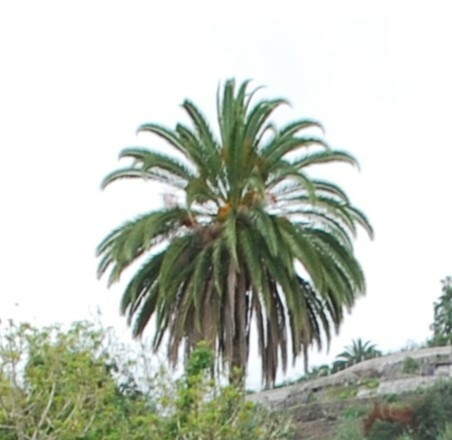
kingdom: Plantae
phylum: Tracheophyta
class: Liliopsida
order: Arecales
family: Arecaceae
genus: Phoenix
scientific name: Phoenix canariensis
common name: Canary island date palm
